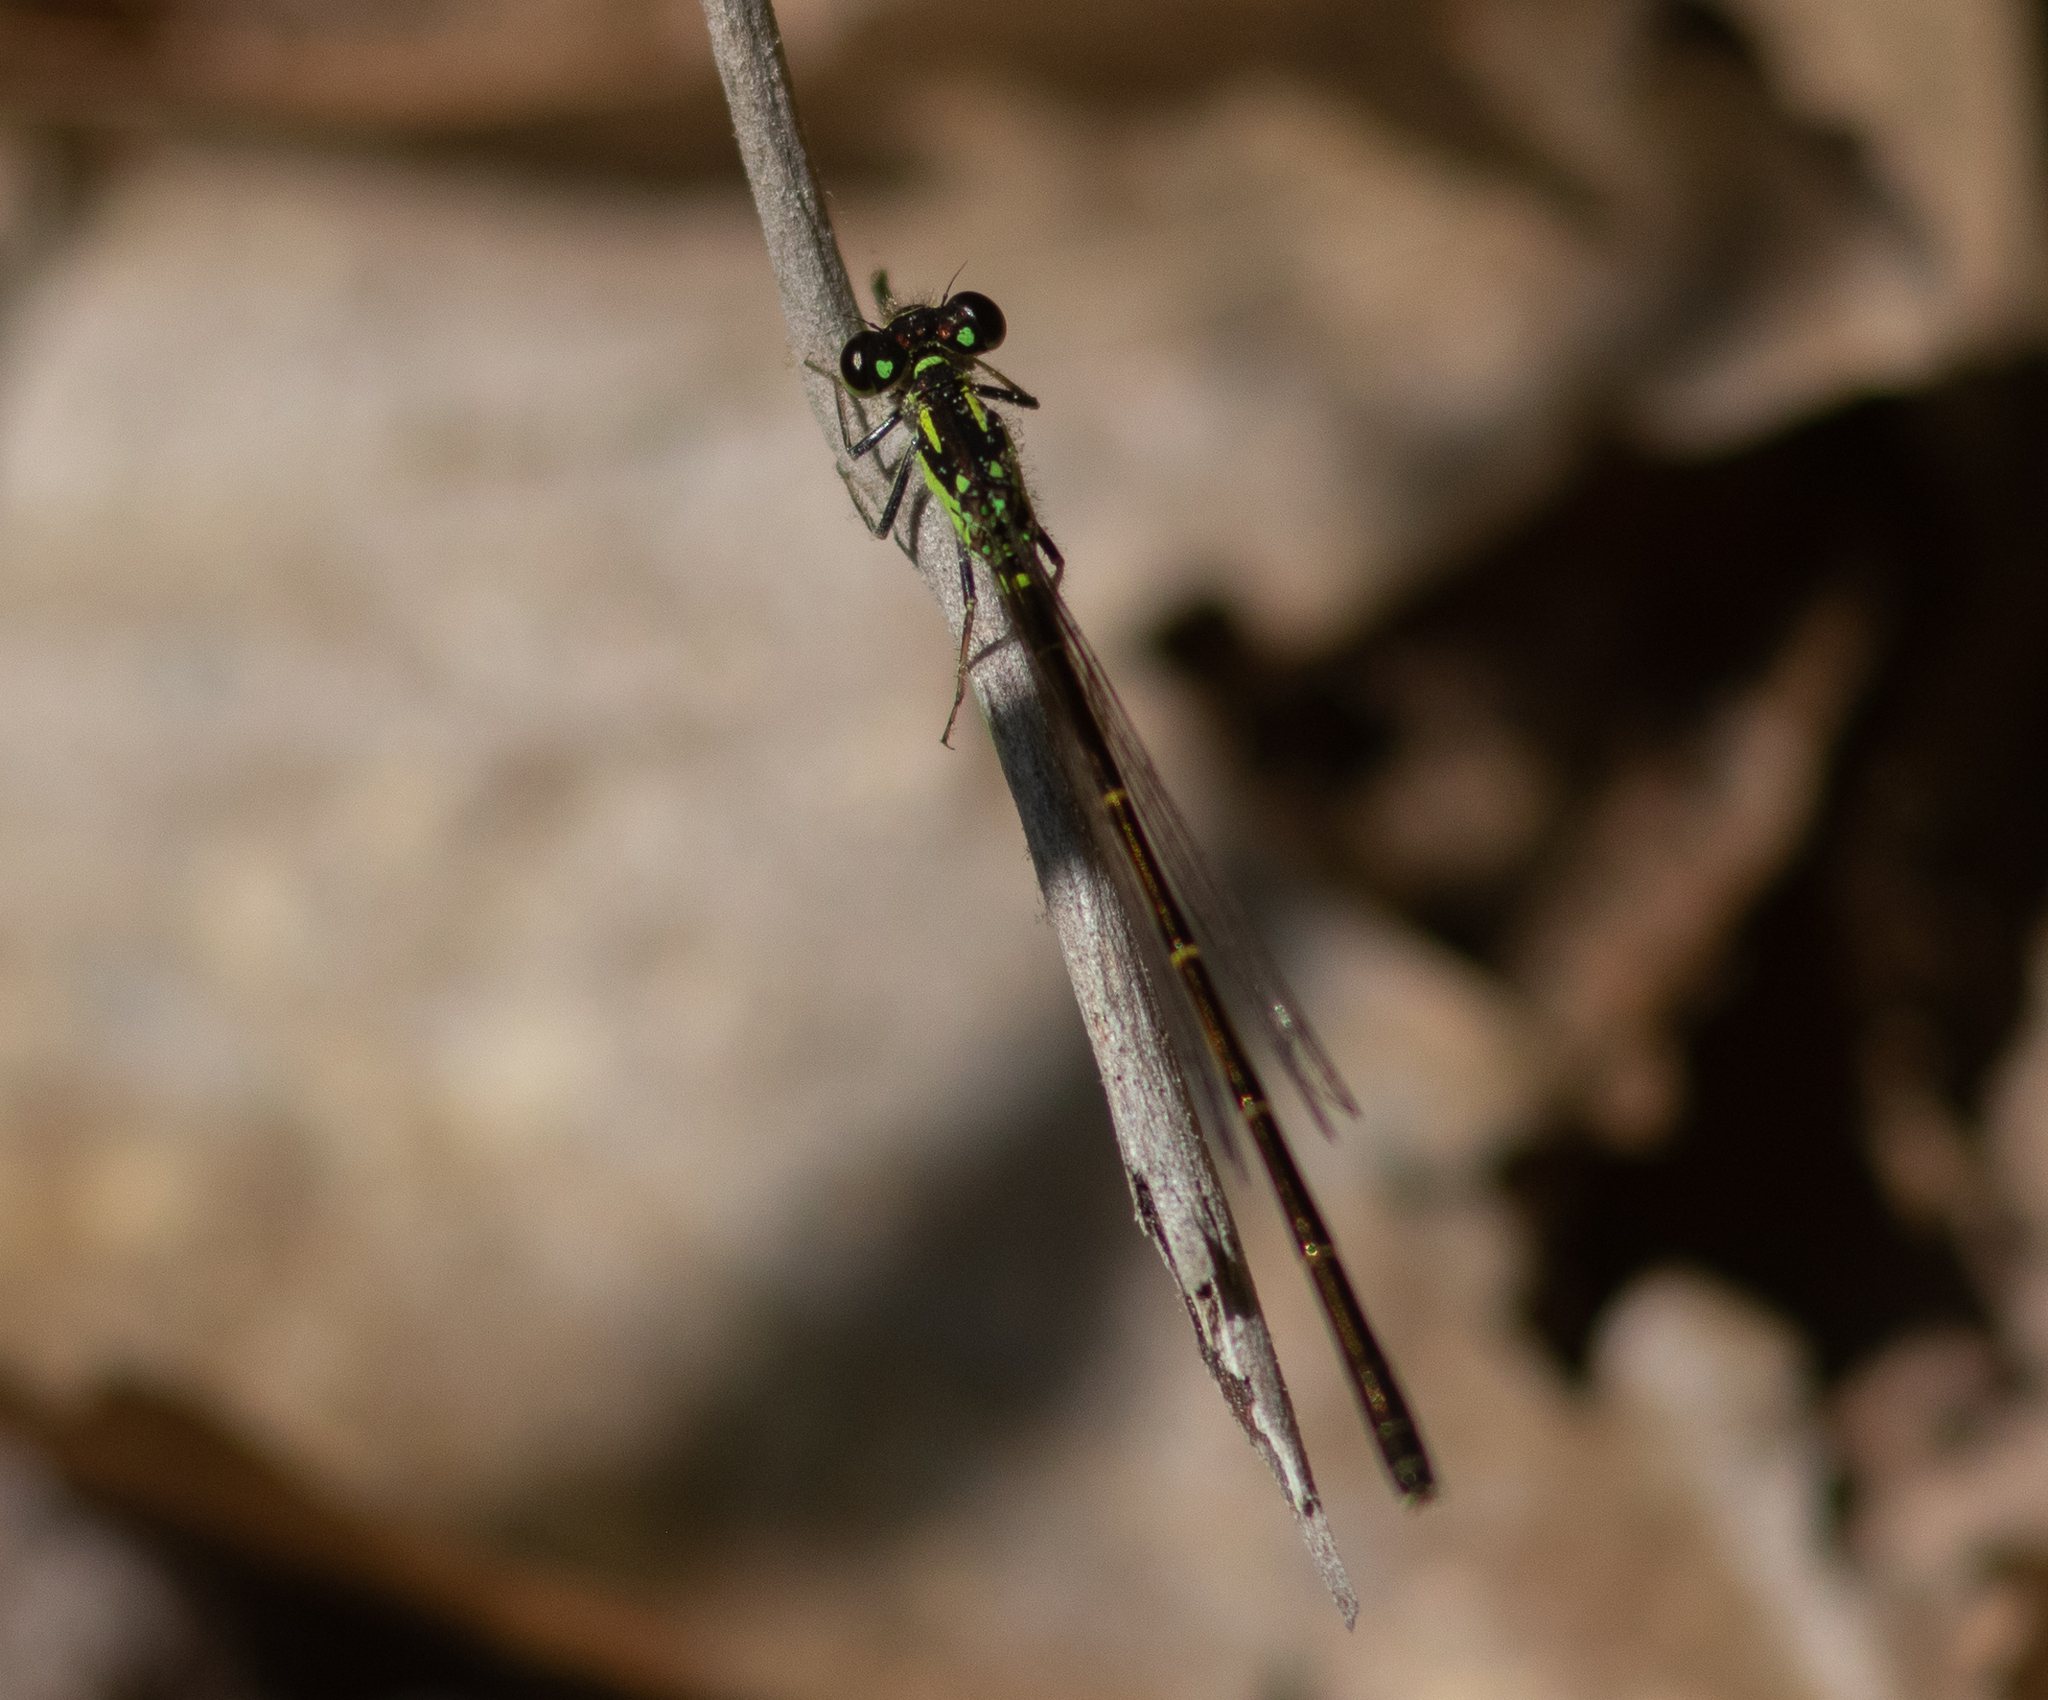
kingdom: Animalia
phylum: Arthropoda
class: Insecta
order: Odonata
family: Coenagrionidae
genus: Ischnura
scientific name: Ischnura posita
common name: Fragile forktail
